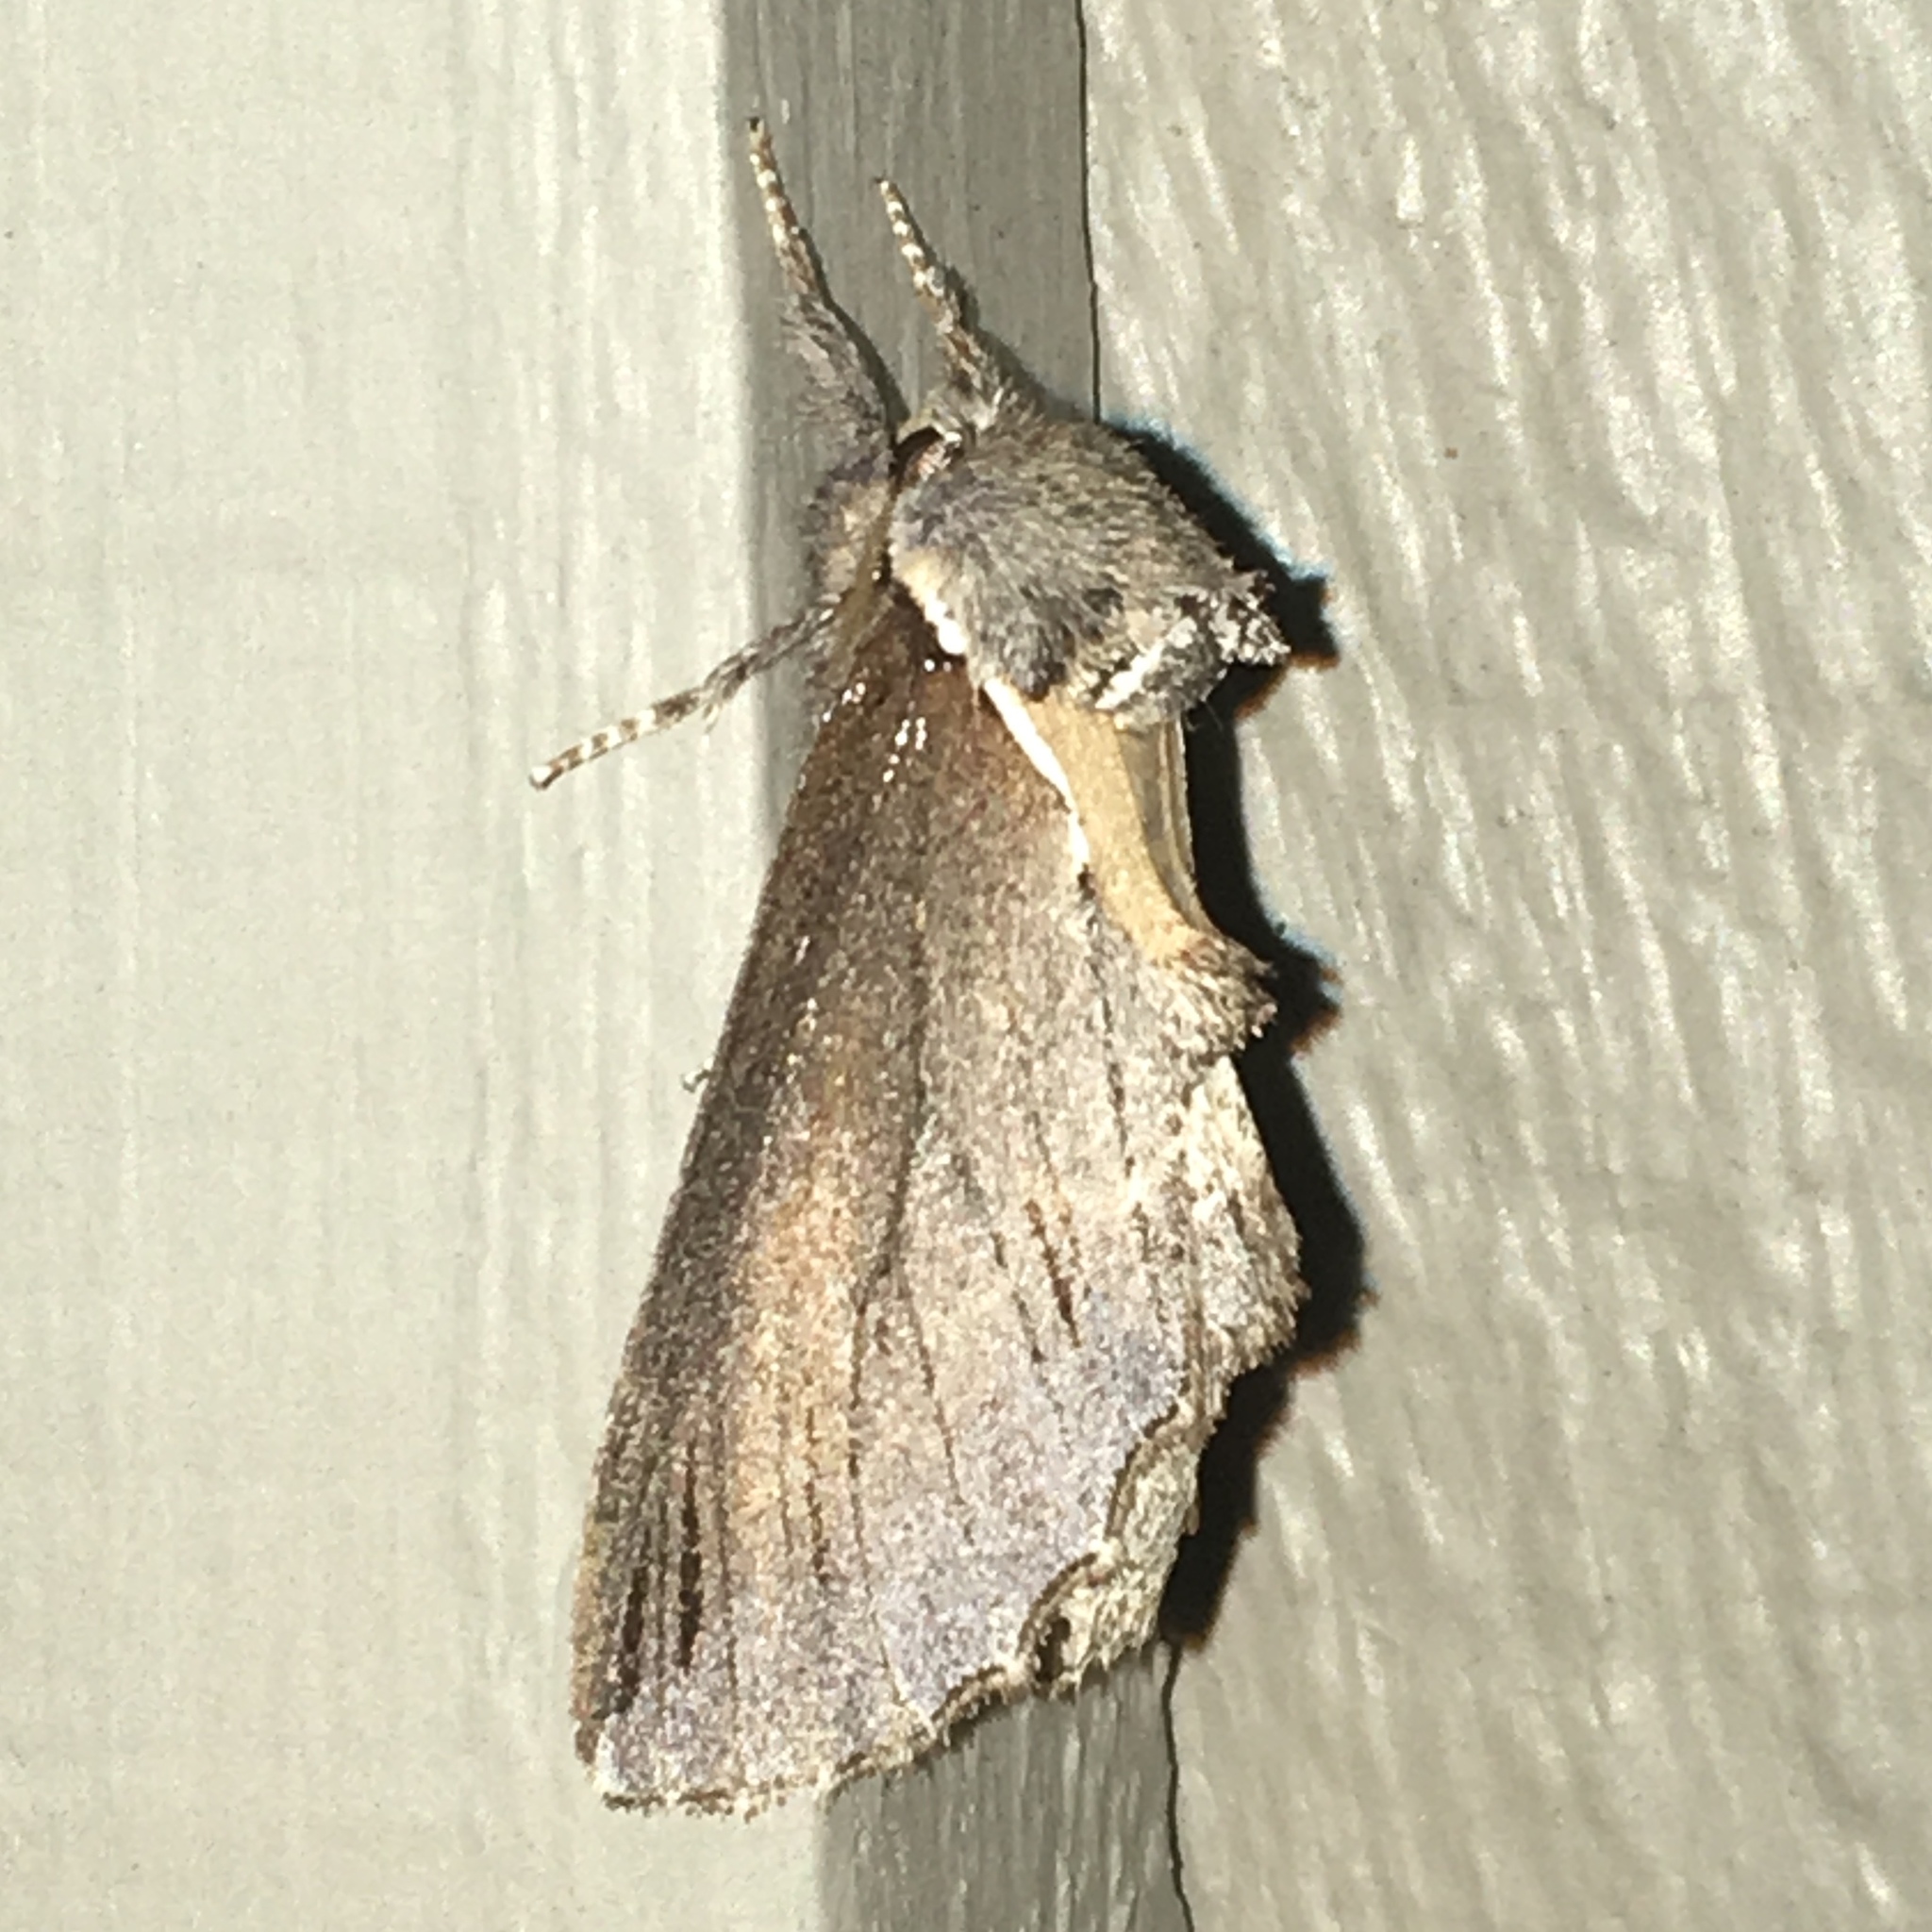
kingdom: Animalia
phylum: Arthropoda
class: Insecta
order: Lepidoptera
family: Notodontidae
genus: Pheosidea
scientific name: Pheosidea elegans
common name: Elegant prominent
